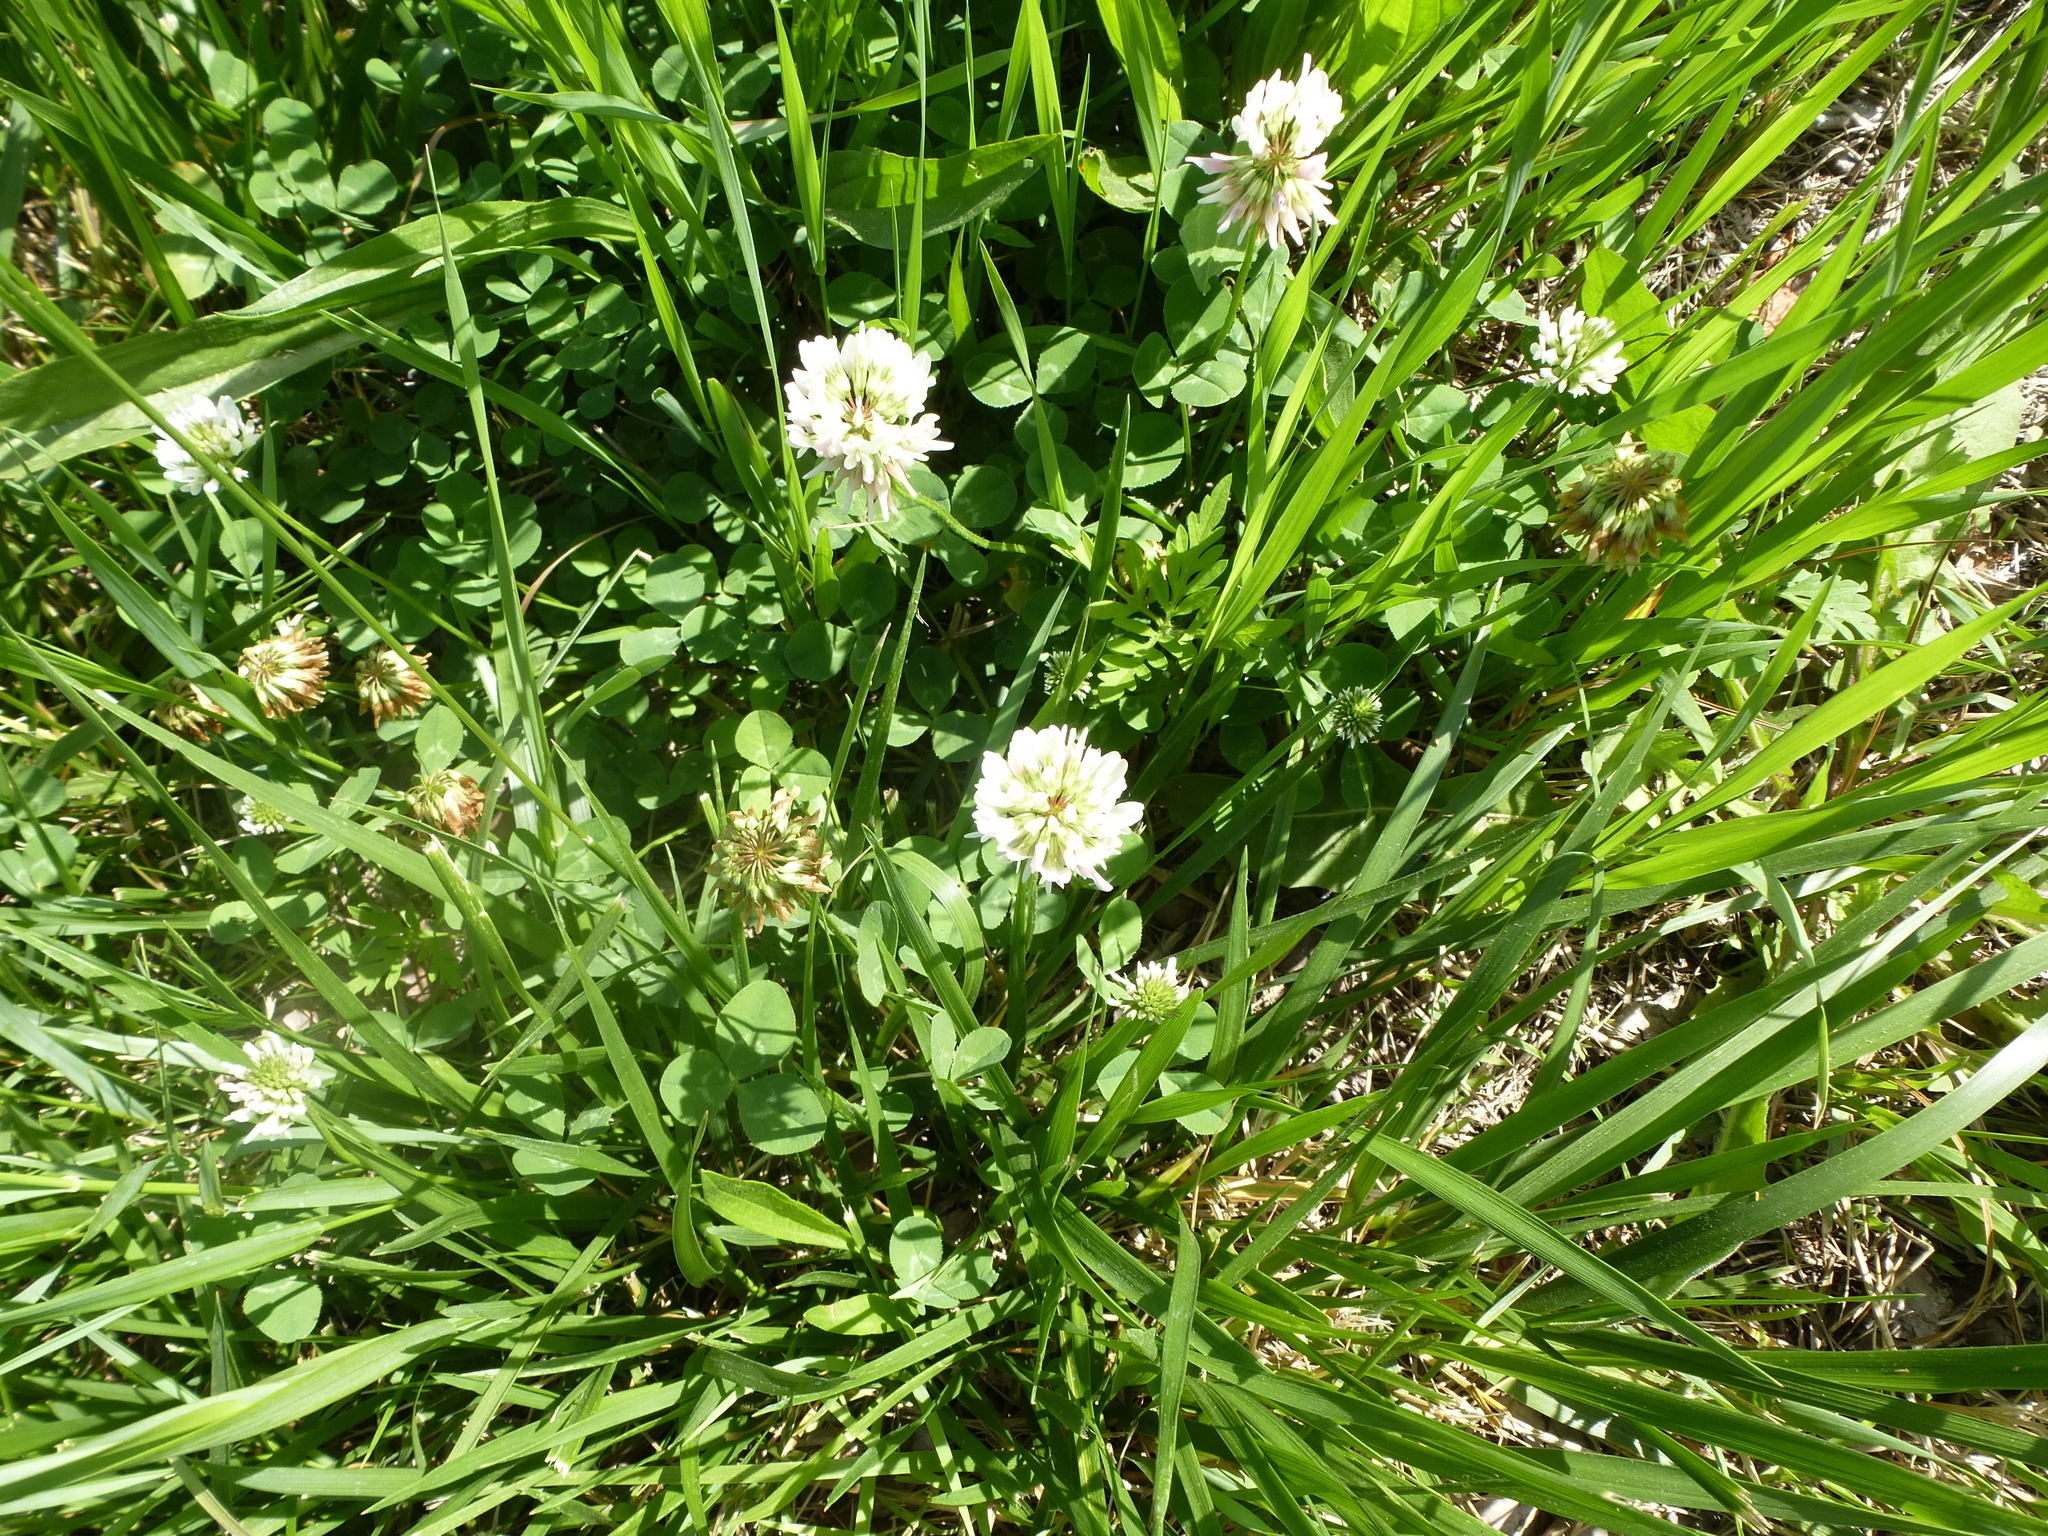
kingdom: Plantae
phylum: Tracheophyta
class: Magnoliopsida
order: Fabales
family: Fabaceae
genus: Trifolium
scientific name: Trifolium repens
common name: White clover
